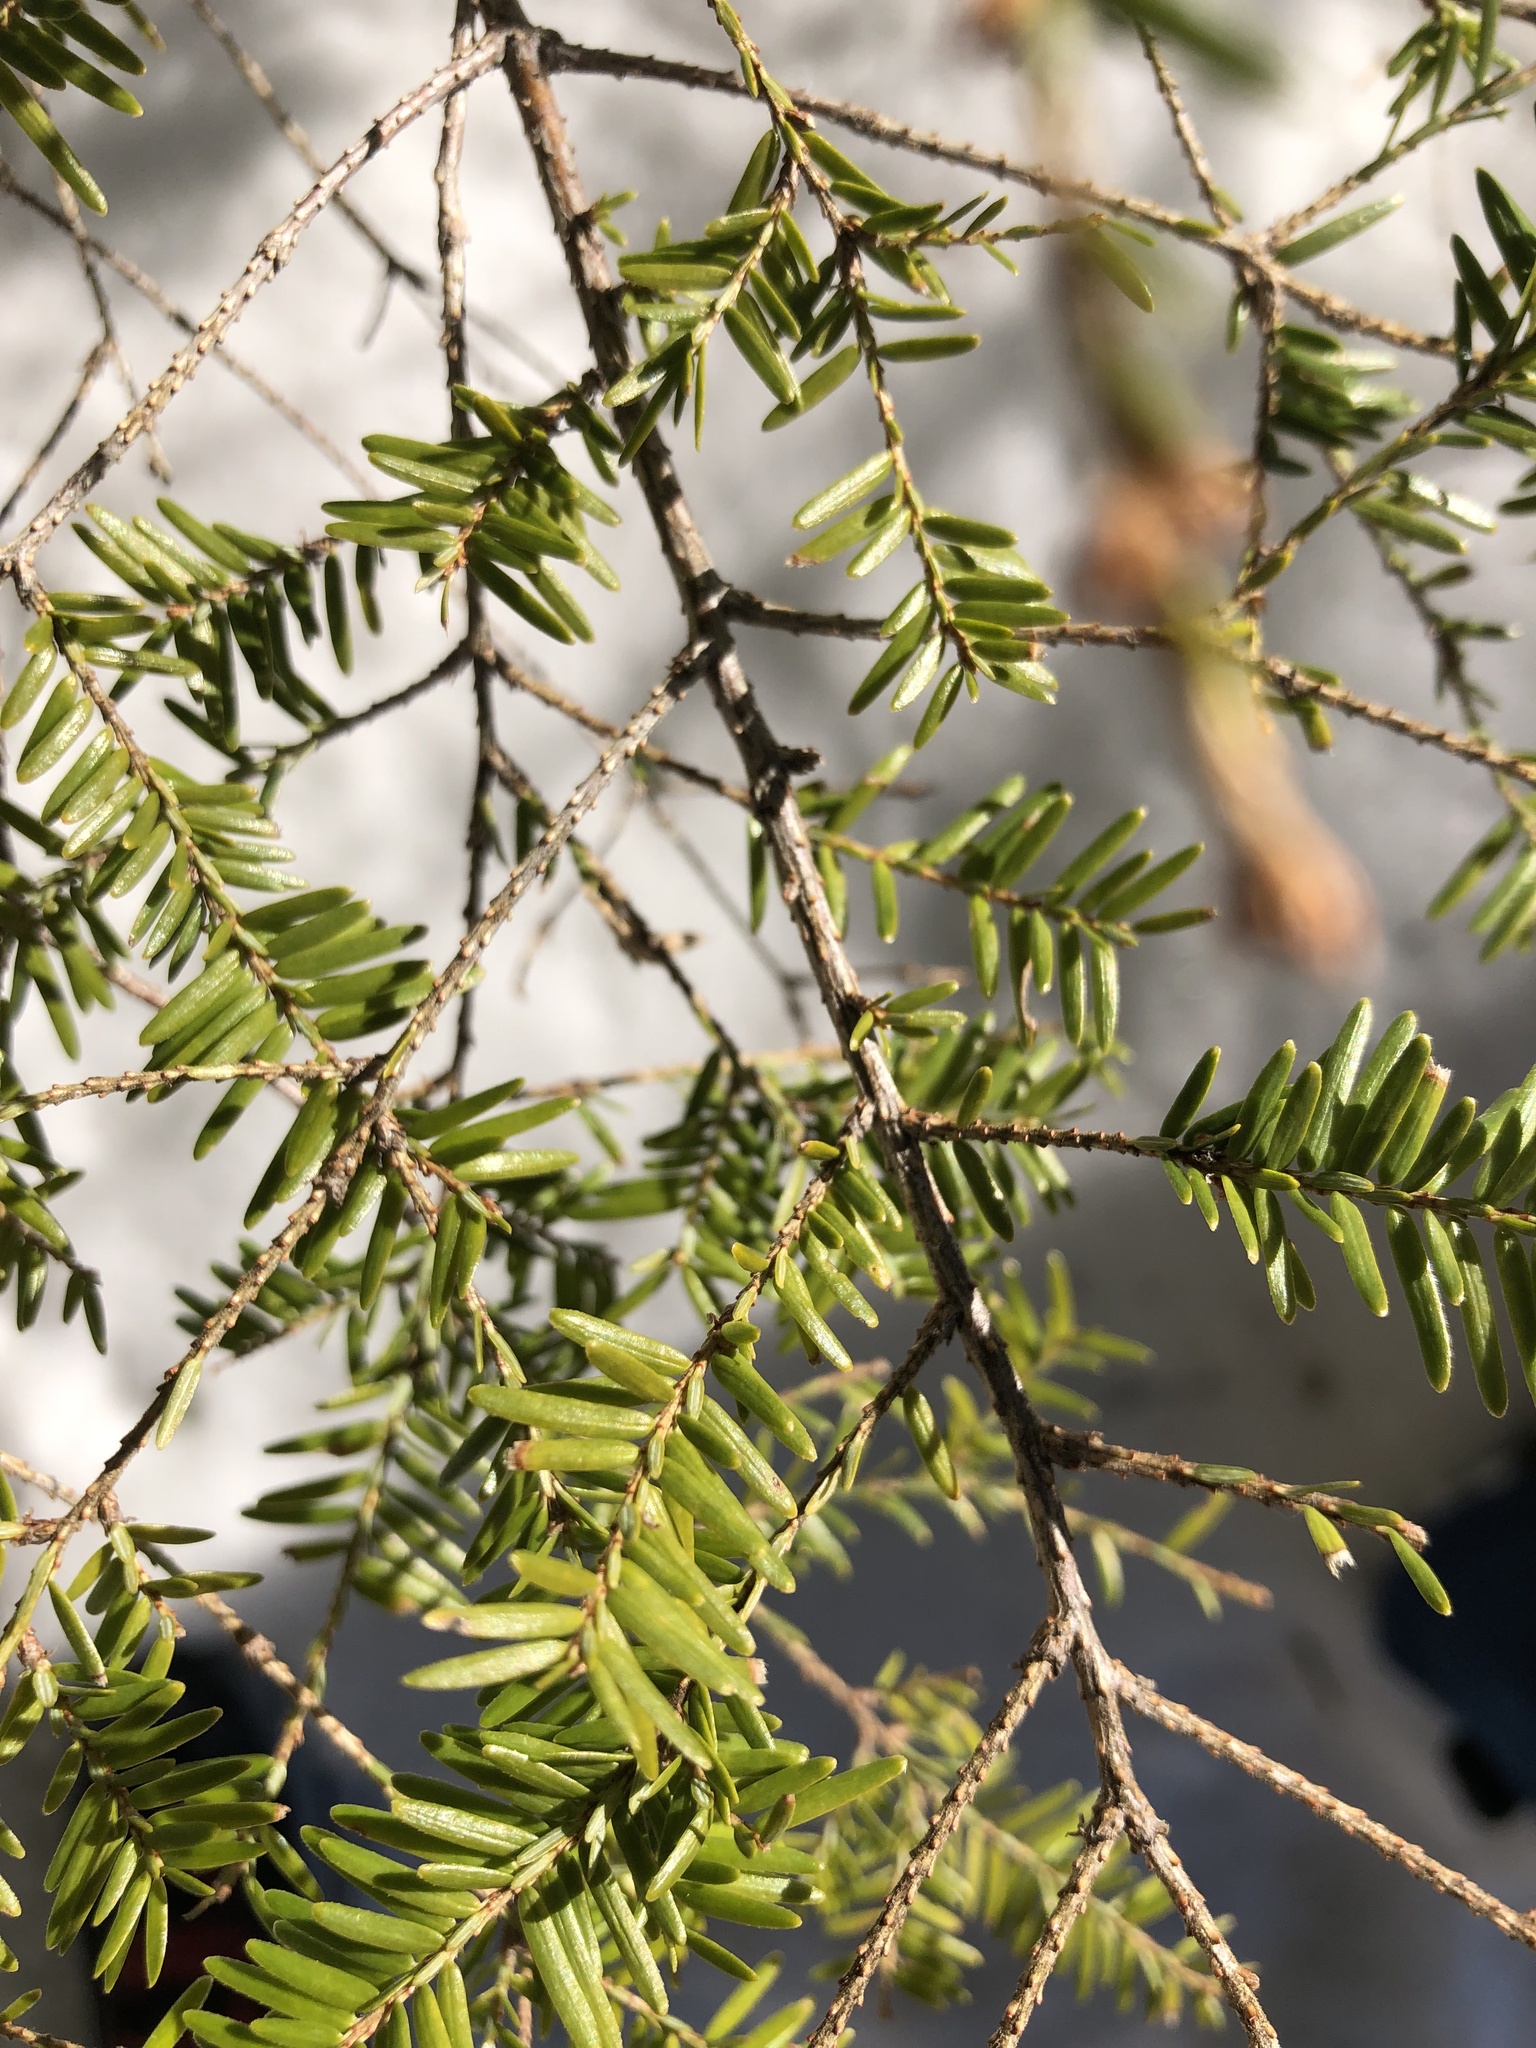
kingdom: Plantae
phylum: Tracheophyta
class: Pinopsida
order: Pinales
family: Pinaceae
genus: Tsuga
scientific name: Tsuga canadensis
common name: Eastern hemlock
